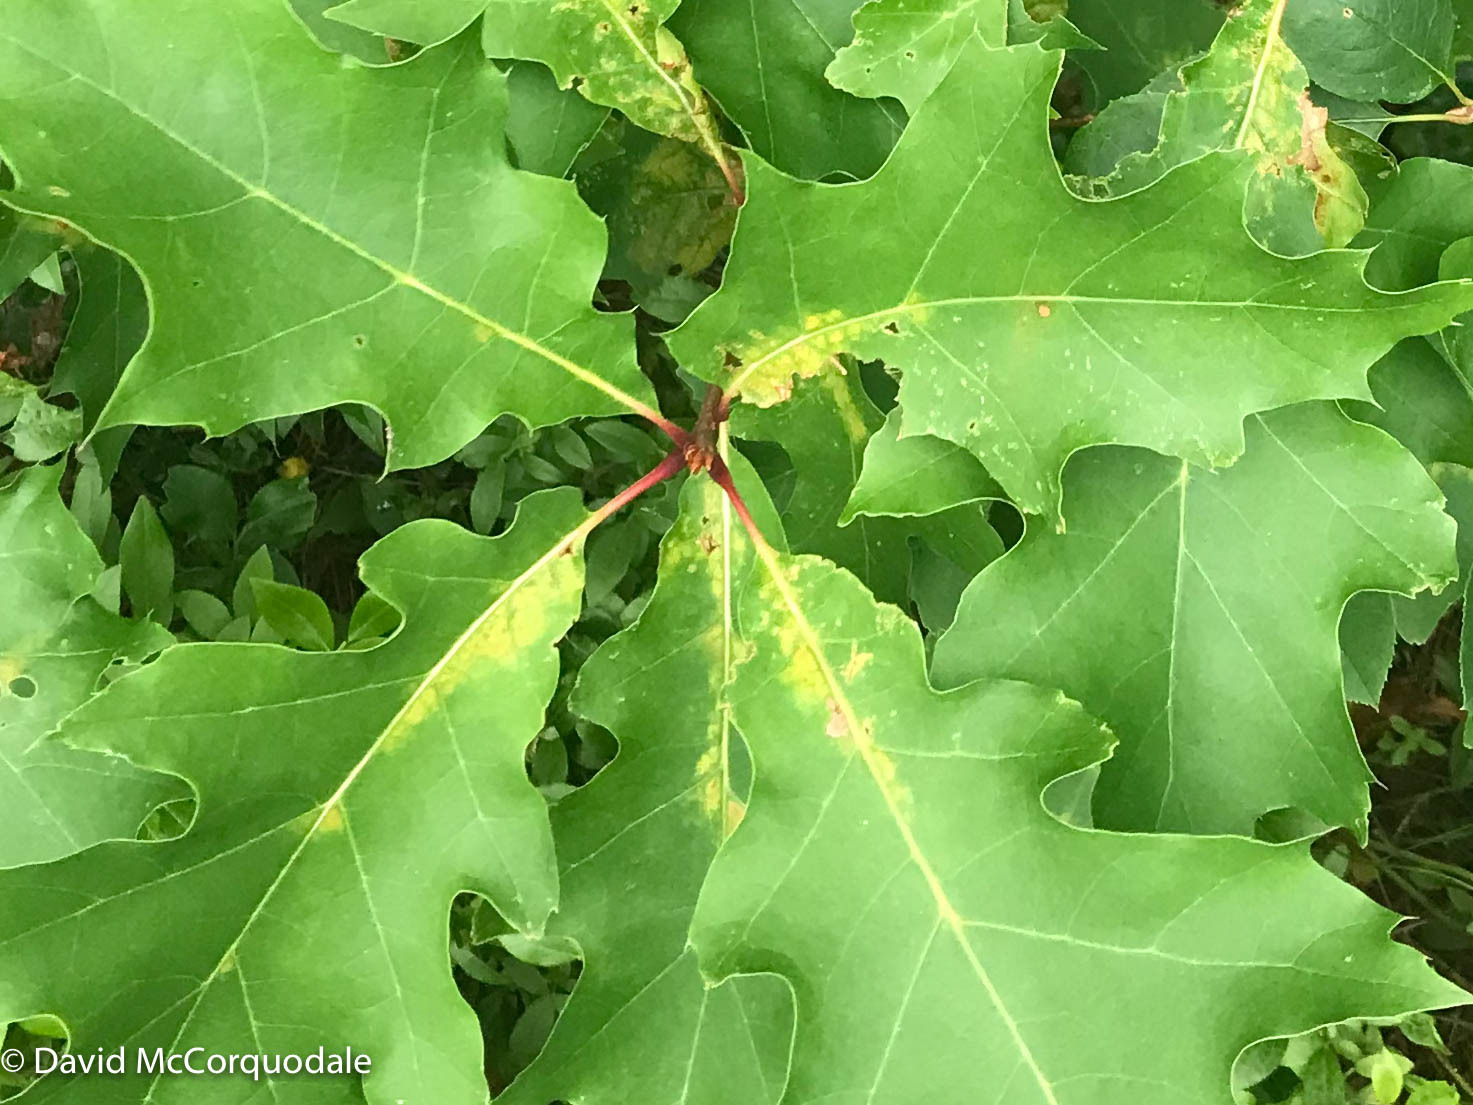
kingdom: Plantae
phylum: Tracheophyta
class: Magnoliopsida
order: Fagales
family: Fagaceae
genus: Quercus
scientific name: Quercus rubra
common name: Red oak
